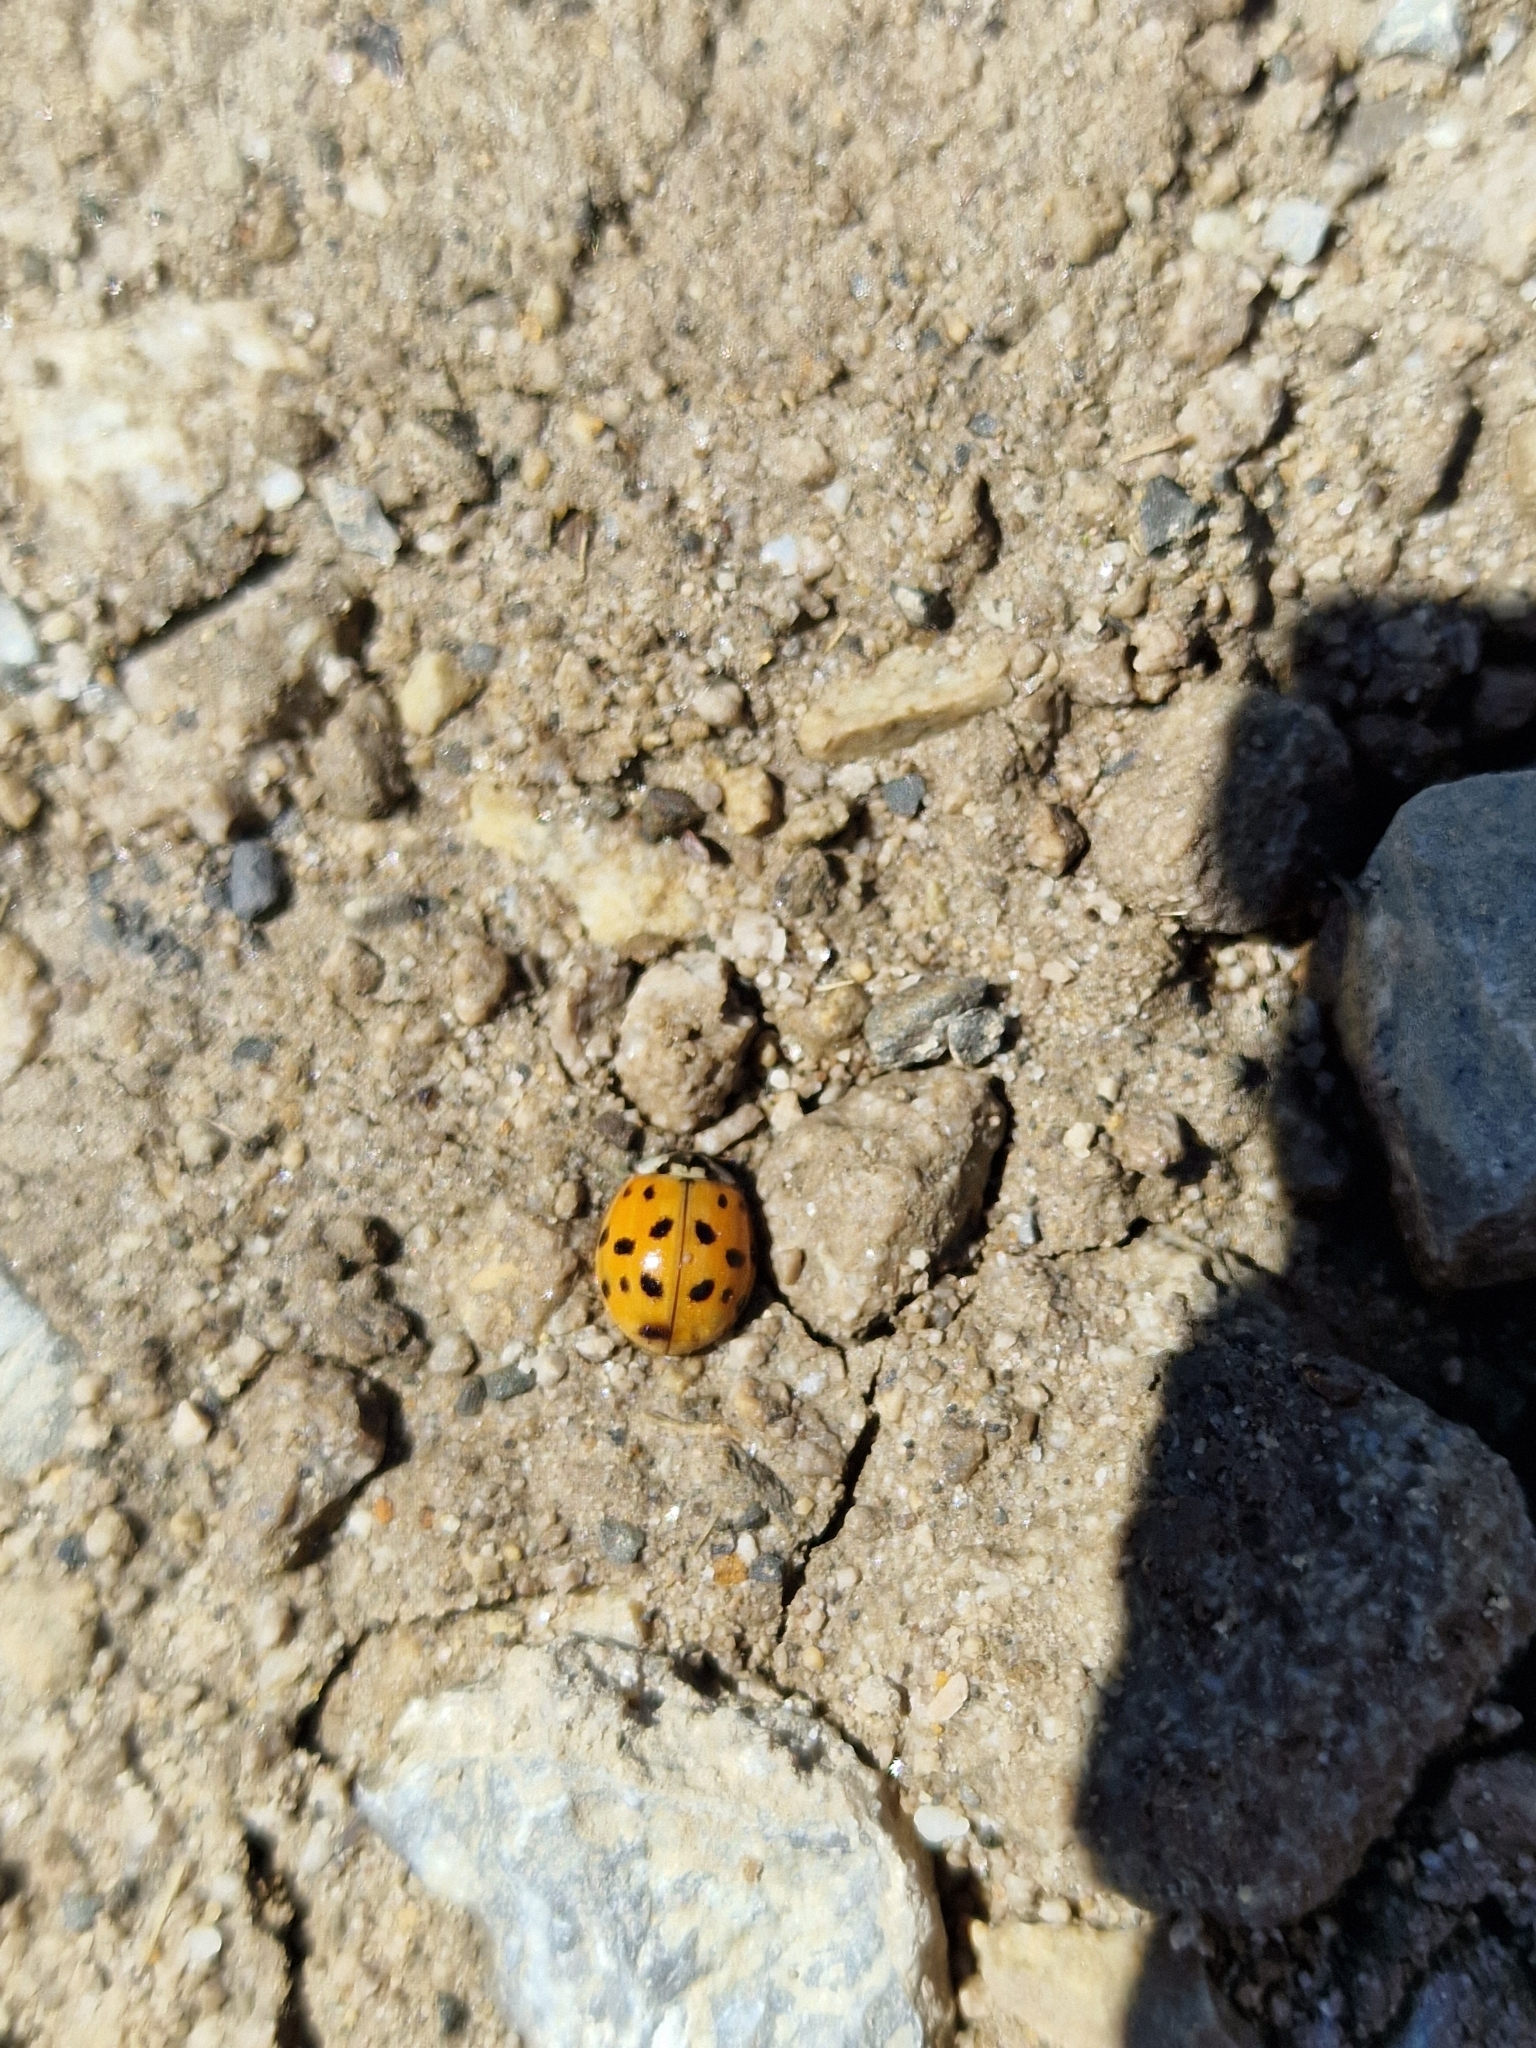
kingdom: Animalia
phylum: Arthropoda
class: Insecta
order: Coleoptera
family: Coccinellidae
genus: Harmonia
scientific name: Harmonia axyridis
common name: Harlequin ladybird
